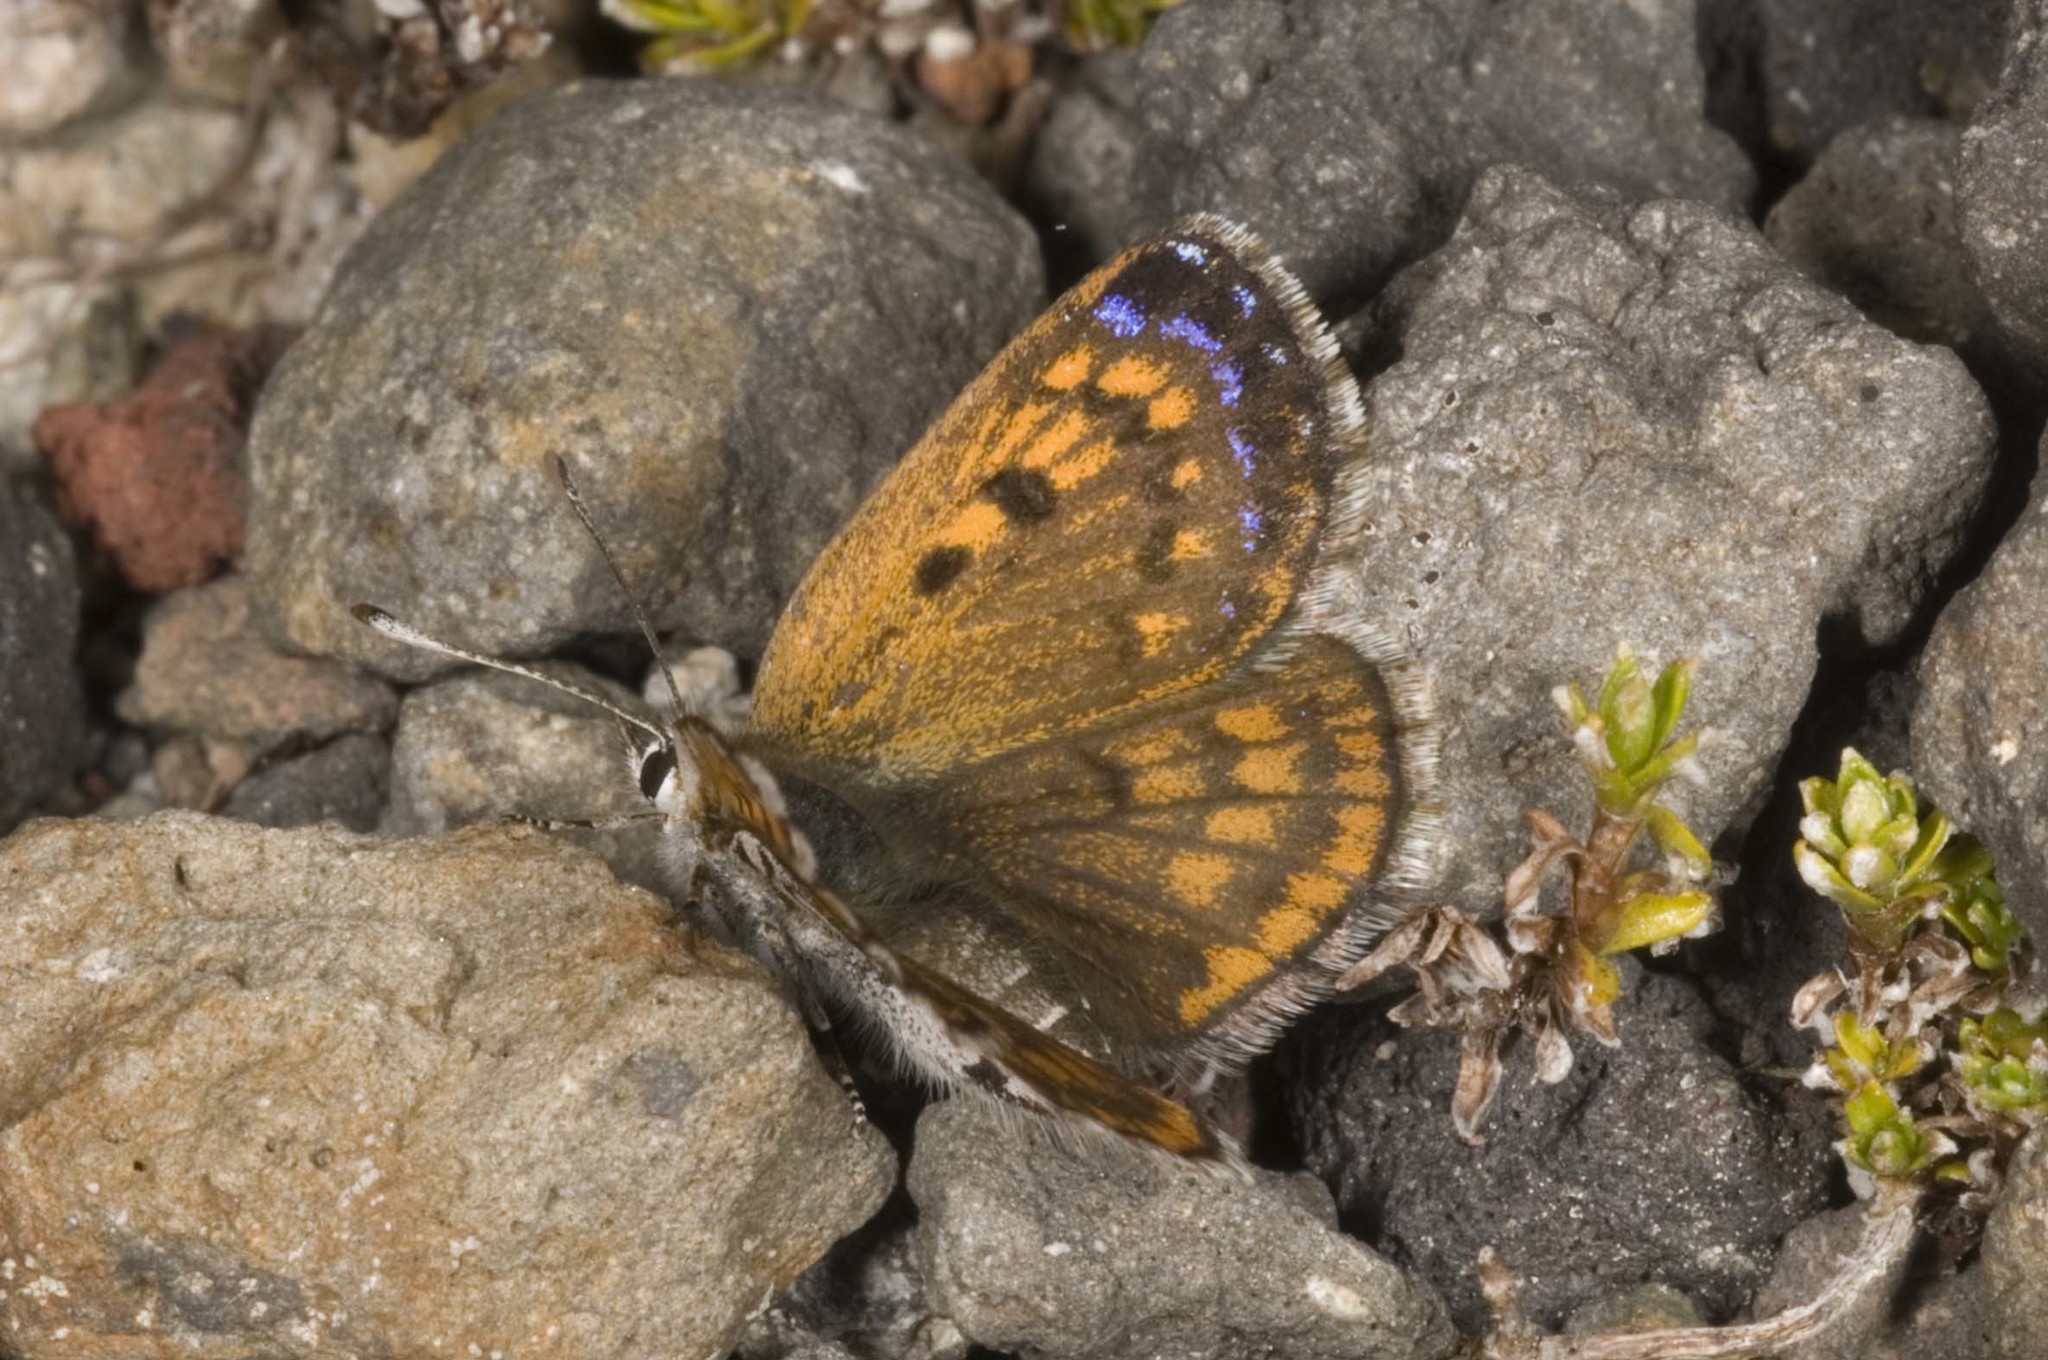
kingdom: Animalia
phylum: Arthropoda
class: Insecta
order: Lepidoptera
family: Lycaenidae
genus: Lycaena
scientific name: Lycaena boldenarum
